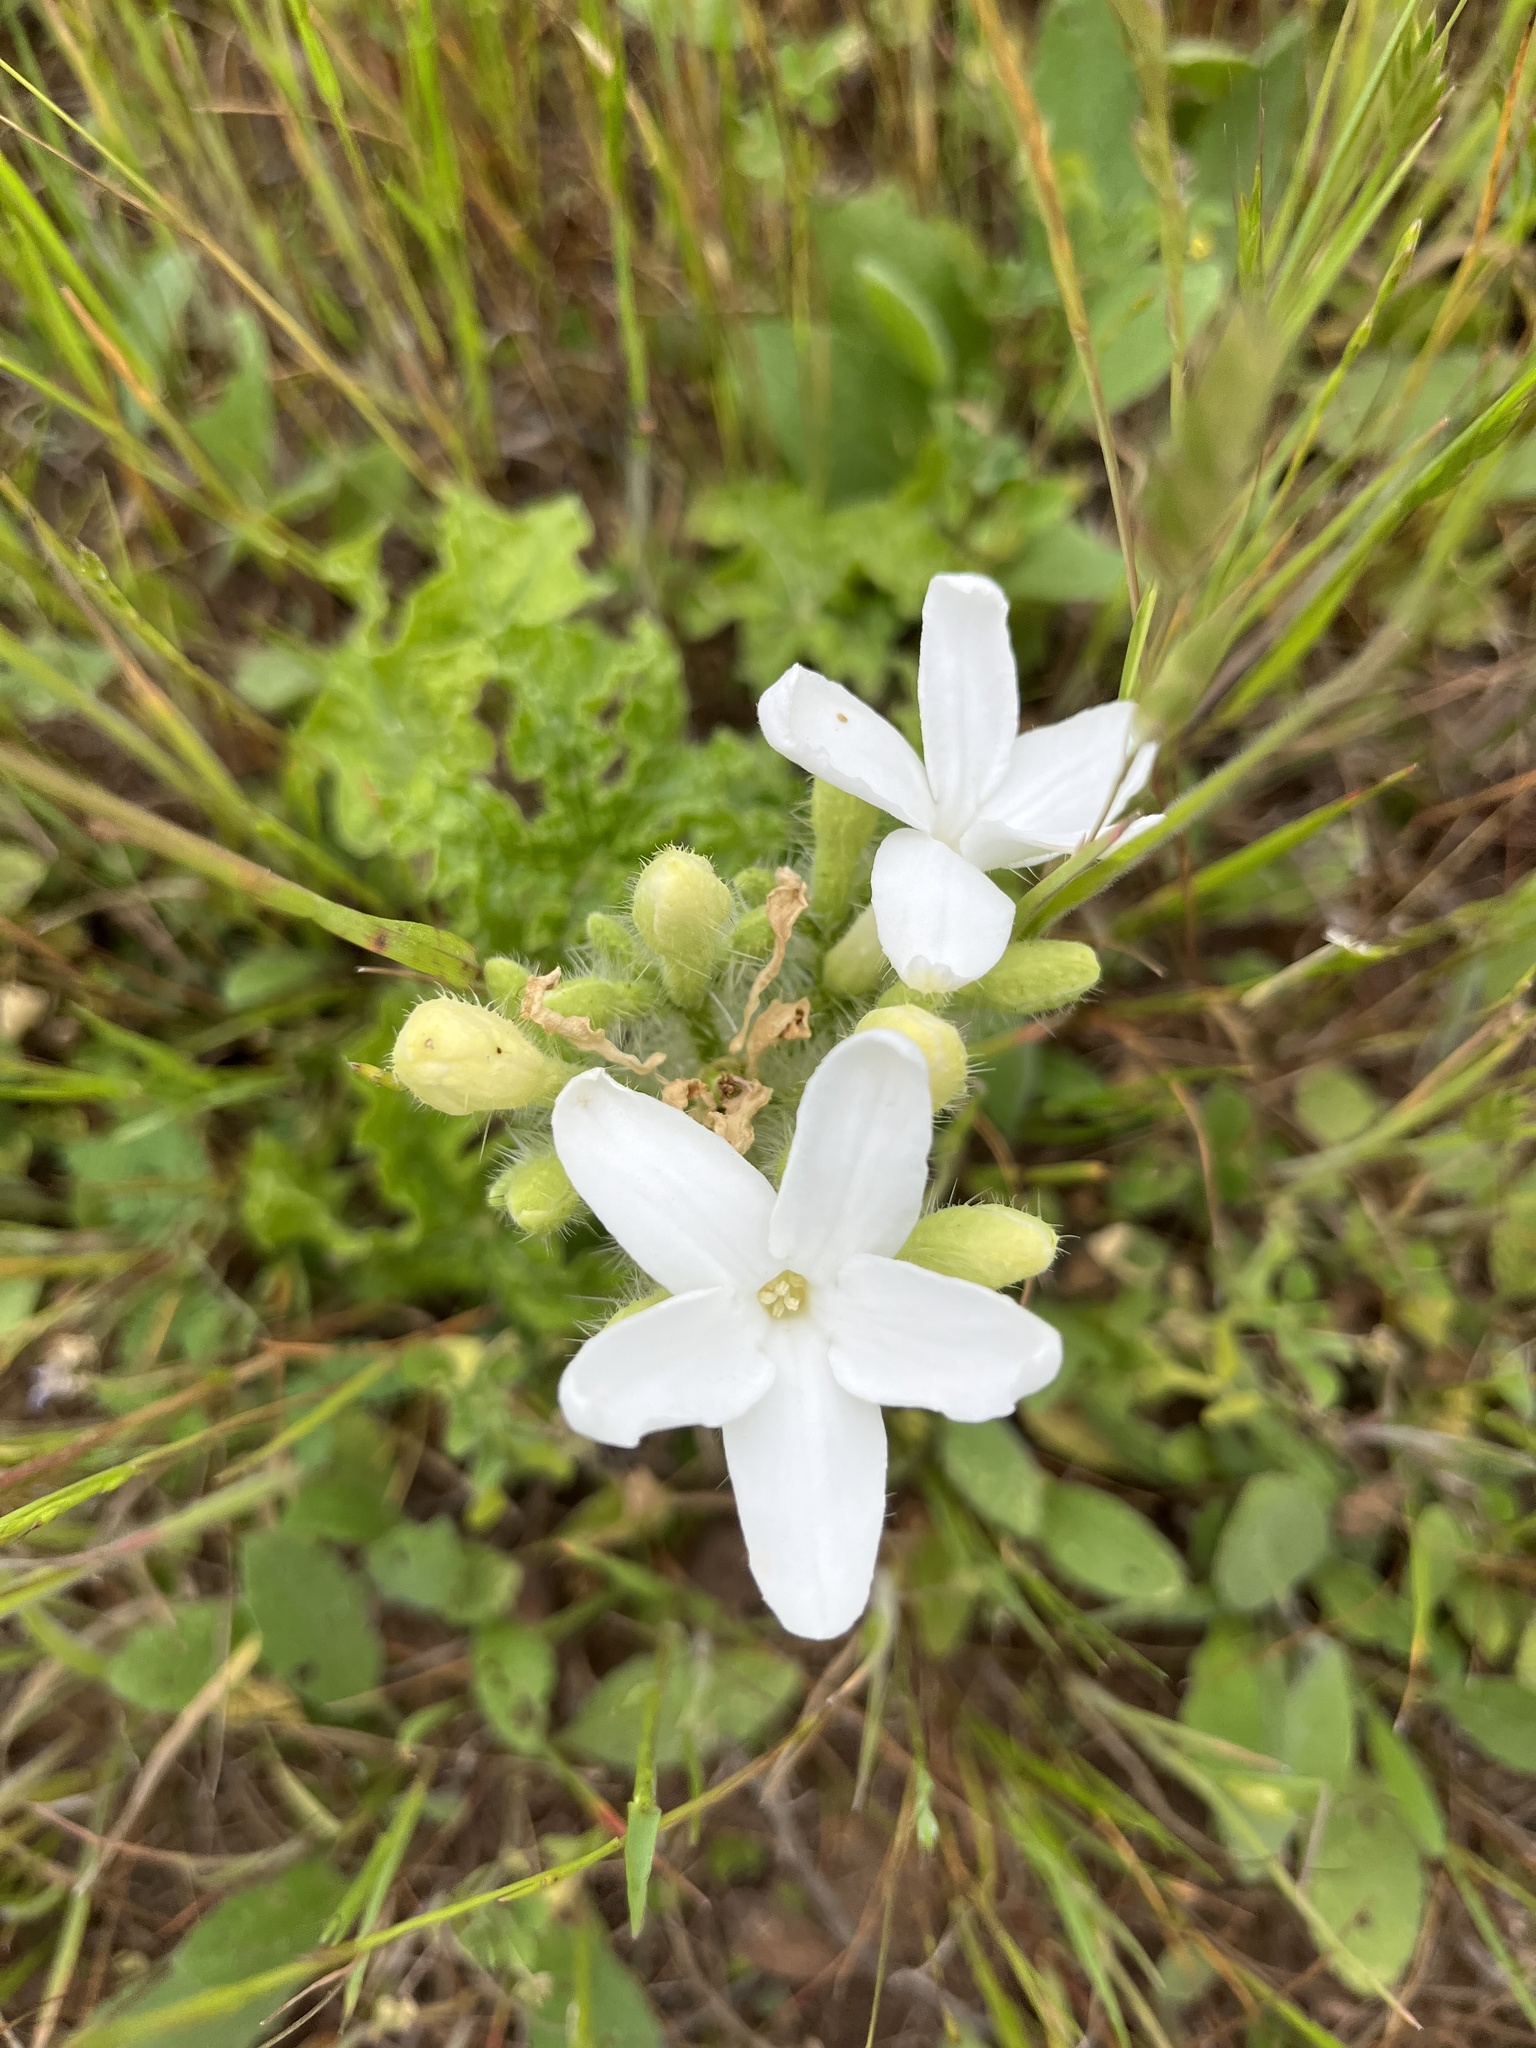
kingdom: Plantae
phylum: Tracheophyta
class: Magnoliopsida
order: Malpighiales
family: Euphorbiaceae
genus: Cnidoscolus
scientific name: Cnidoscolus texanus
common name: Texas bull-nettle
